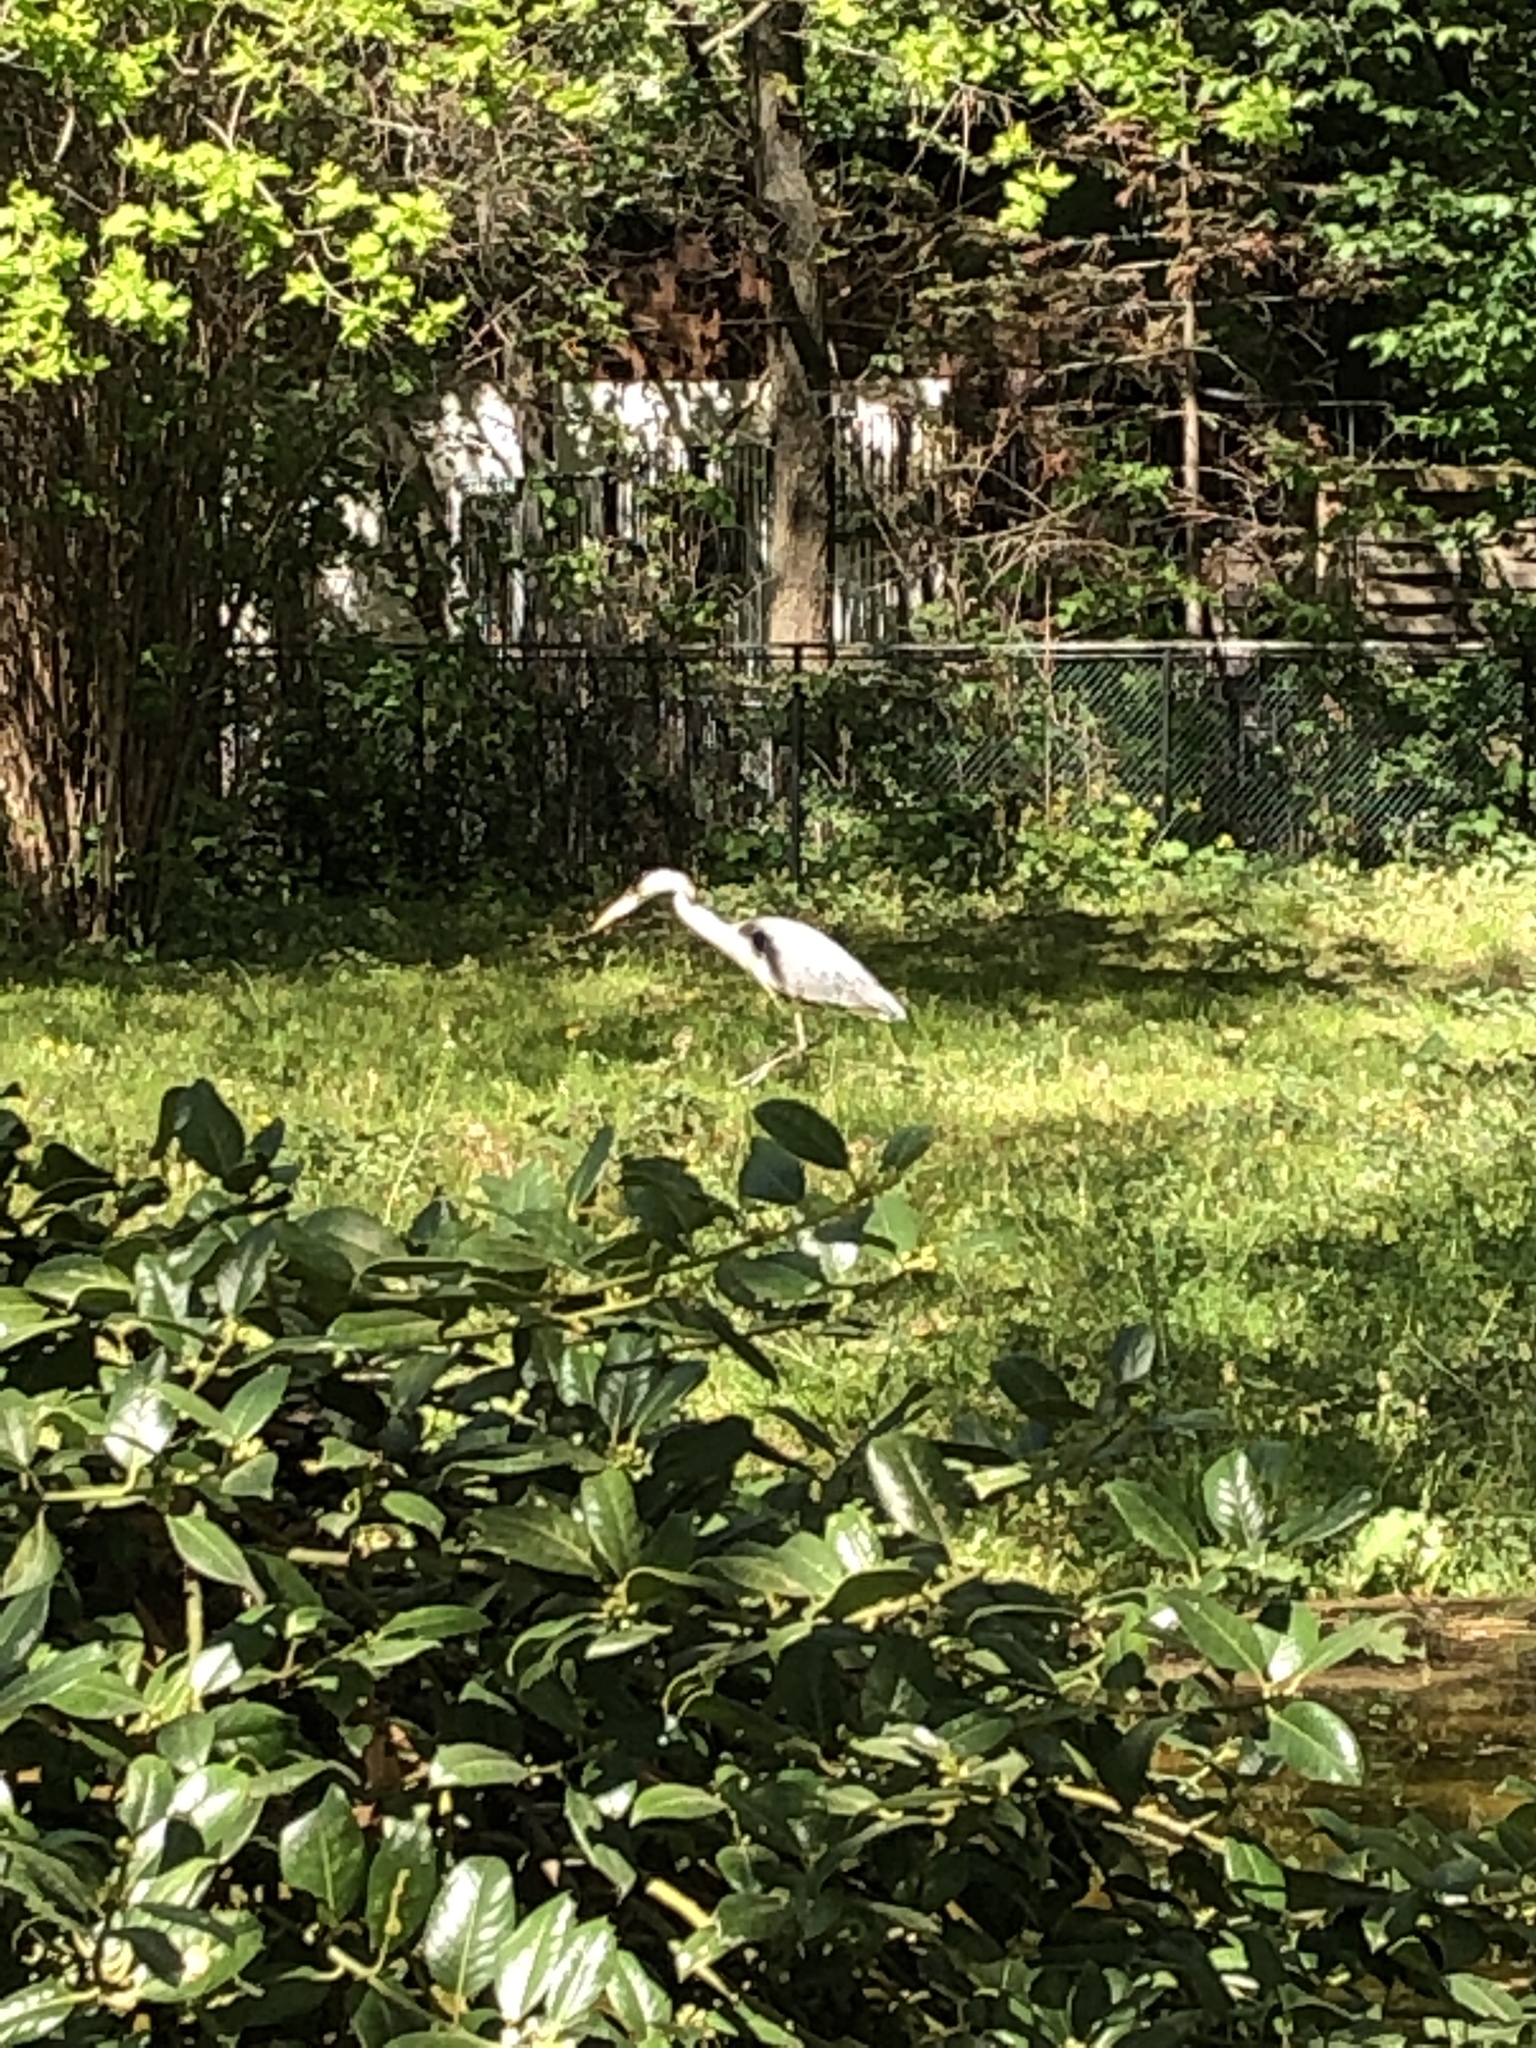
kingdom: Animalia
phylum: Chordata
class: Aves
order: Pelecaniformes
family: Ardeidae
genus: Ardea
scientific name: Ardea cinerea
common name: Grey heron
